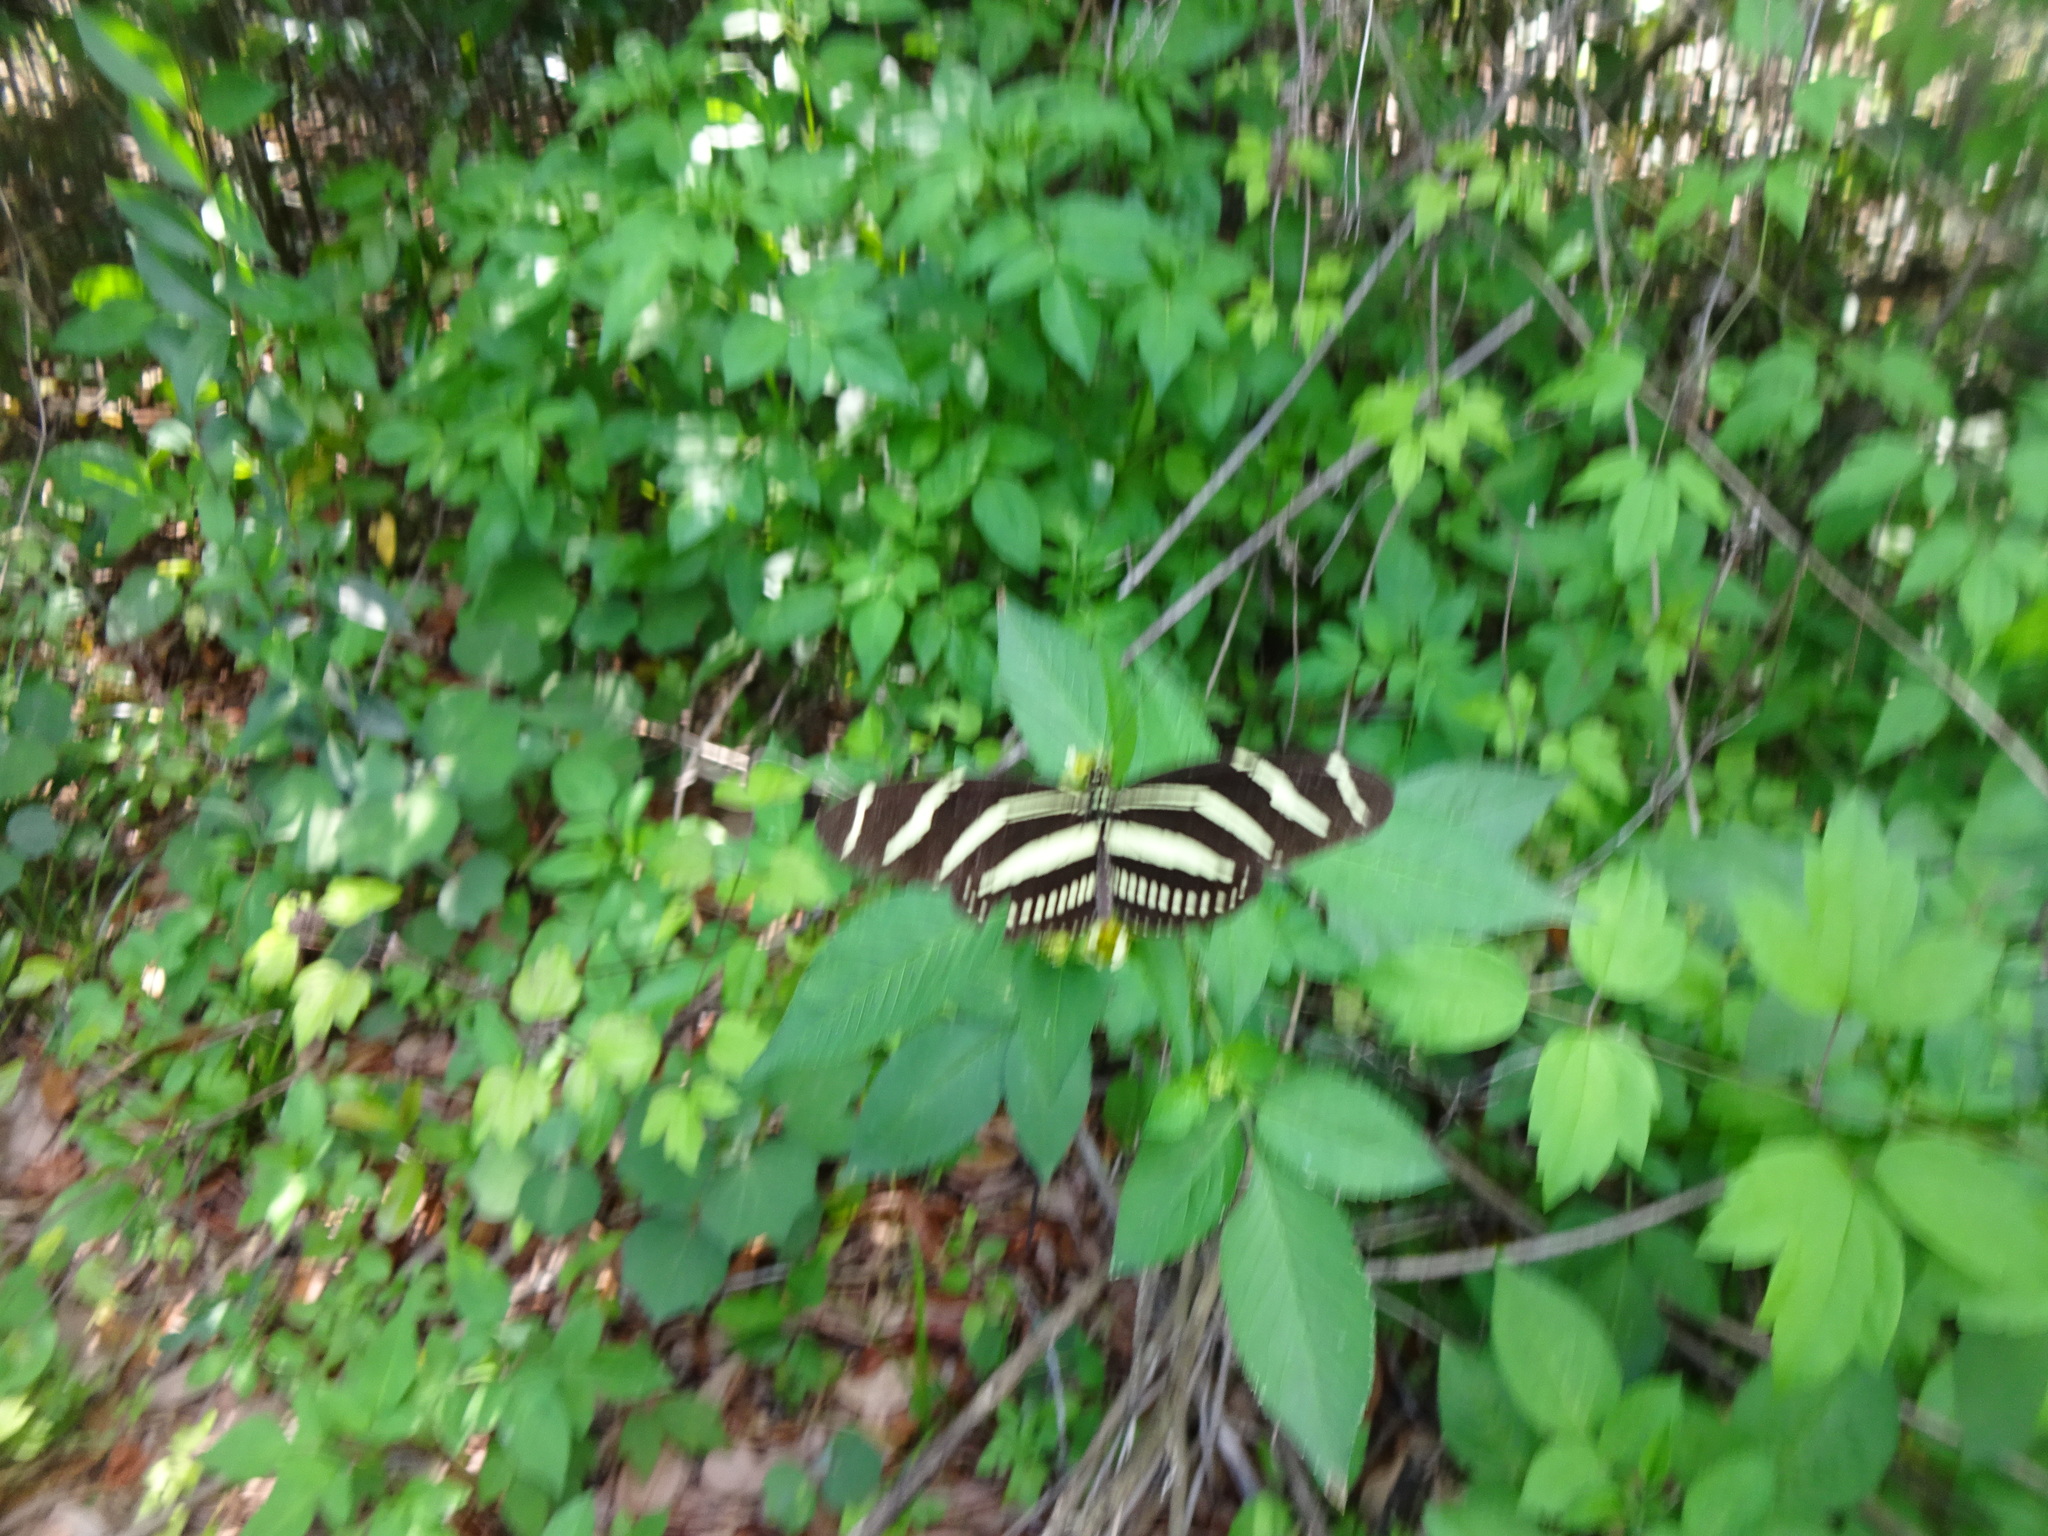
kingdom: Animalia
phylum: Arthropoda
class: Insecta
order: Lepidoptera
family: Nymphalidae
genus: Heliconius
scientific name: Heliconius charithonia
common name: Zebra long wing
